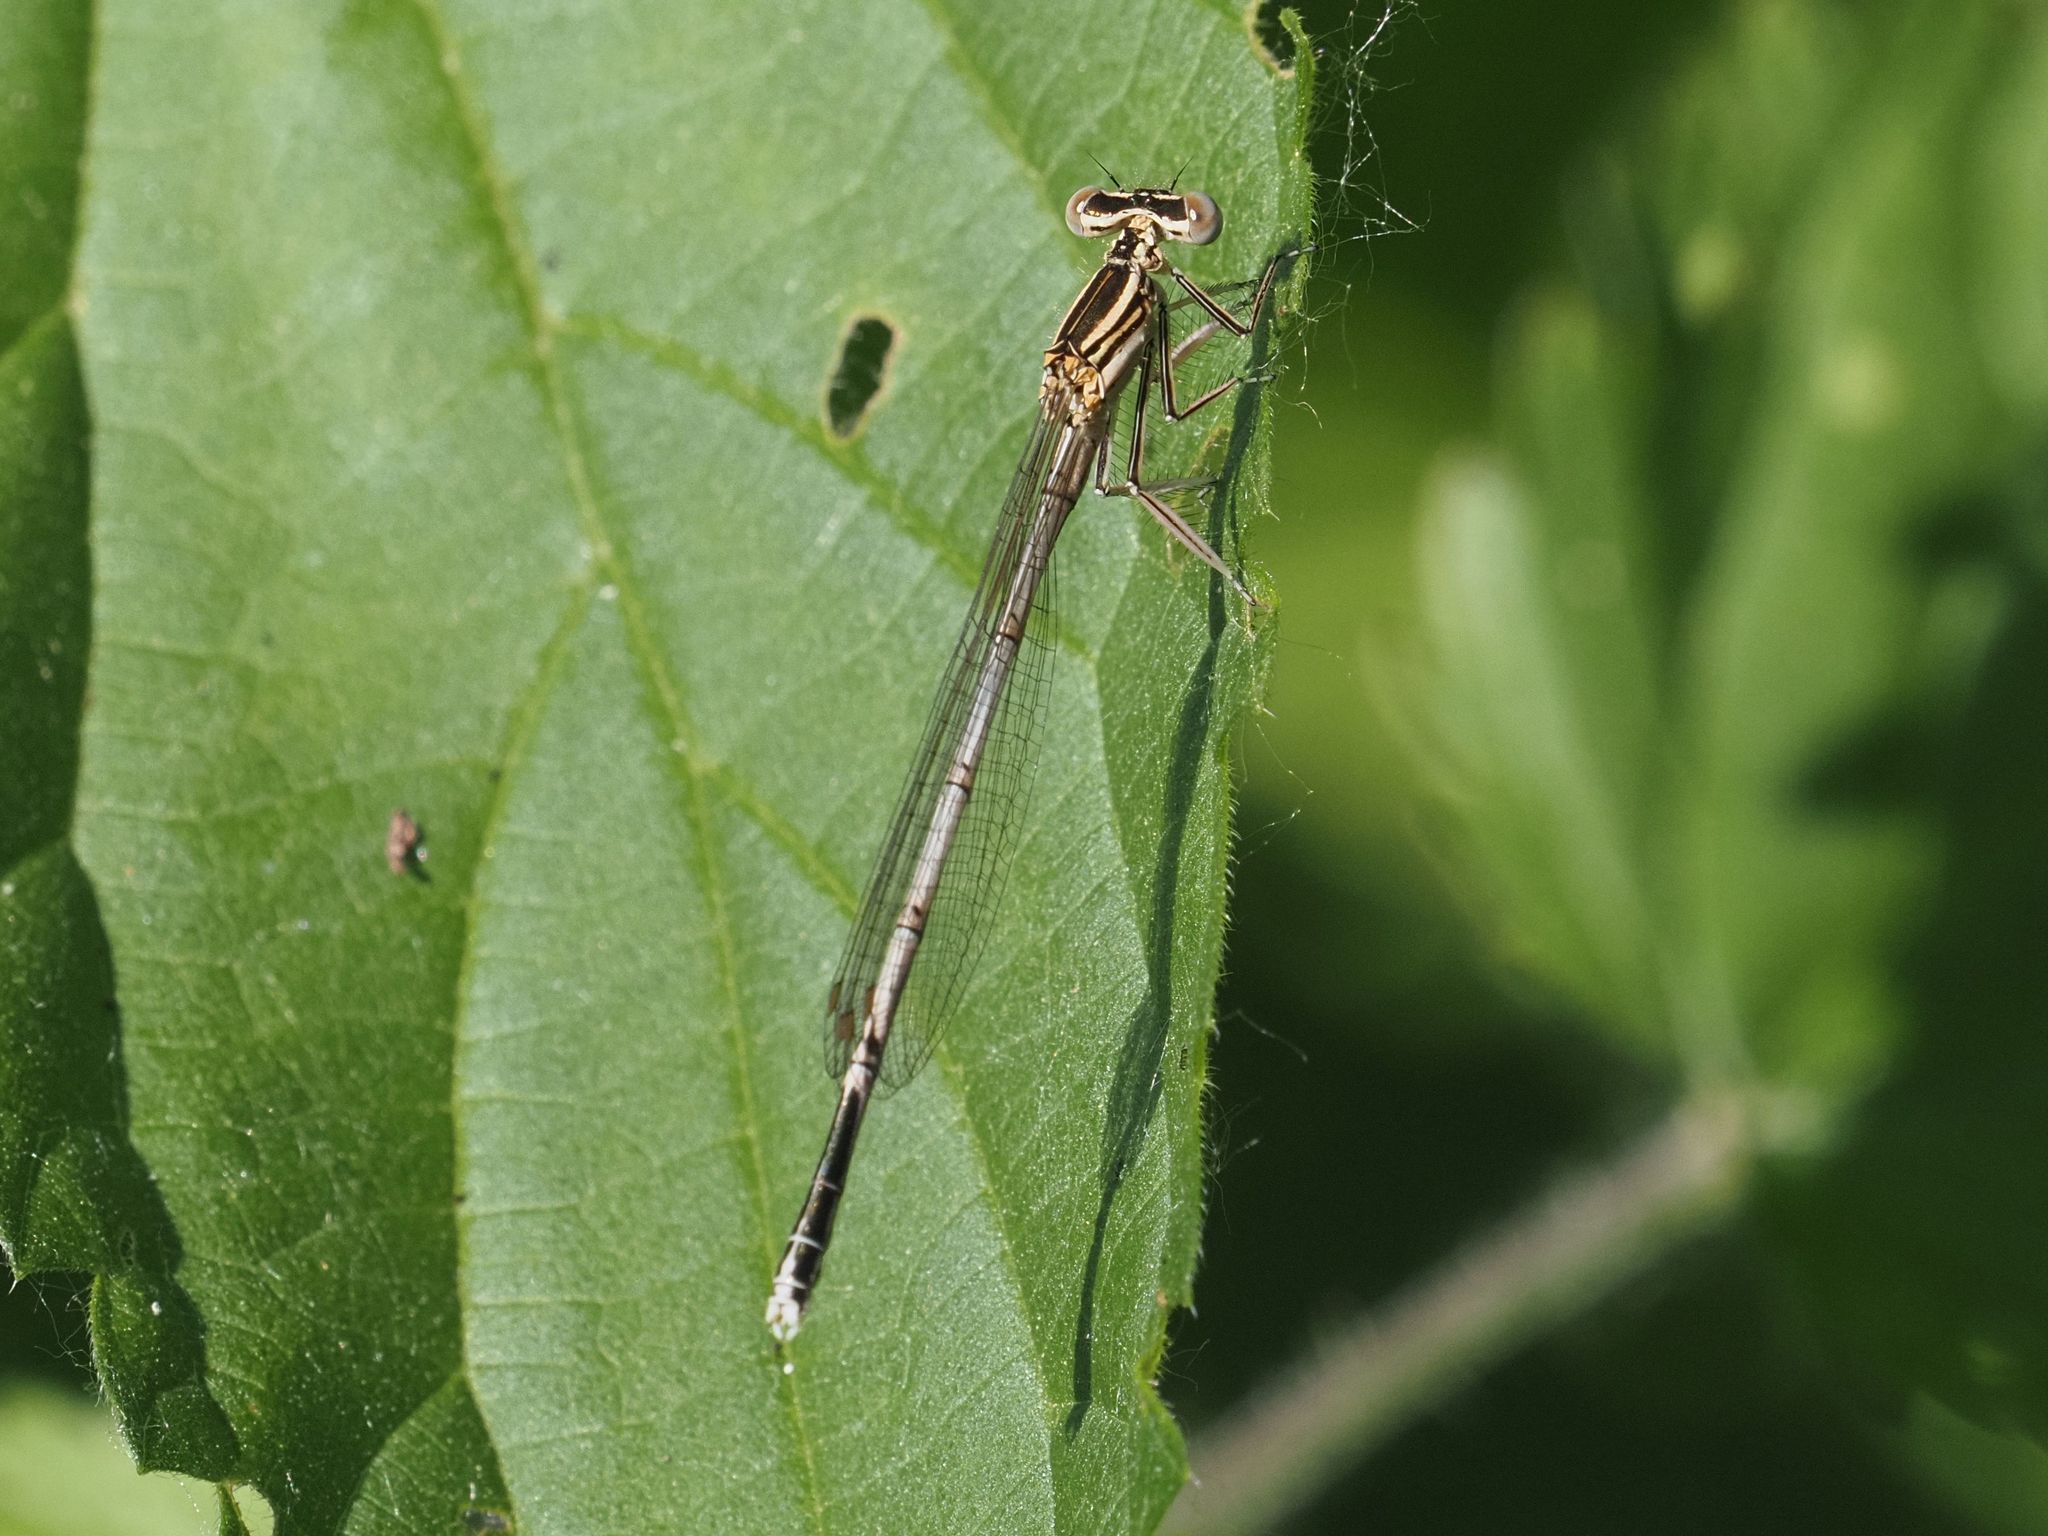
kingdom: Animalia
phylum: Arthropoda
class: Insecta
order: Odonata
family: Platycnemididae
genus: Platycnemis
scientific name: Platycnemis pennipes
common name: White-legged damselfly
